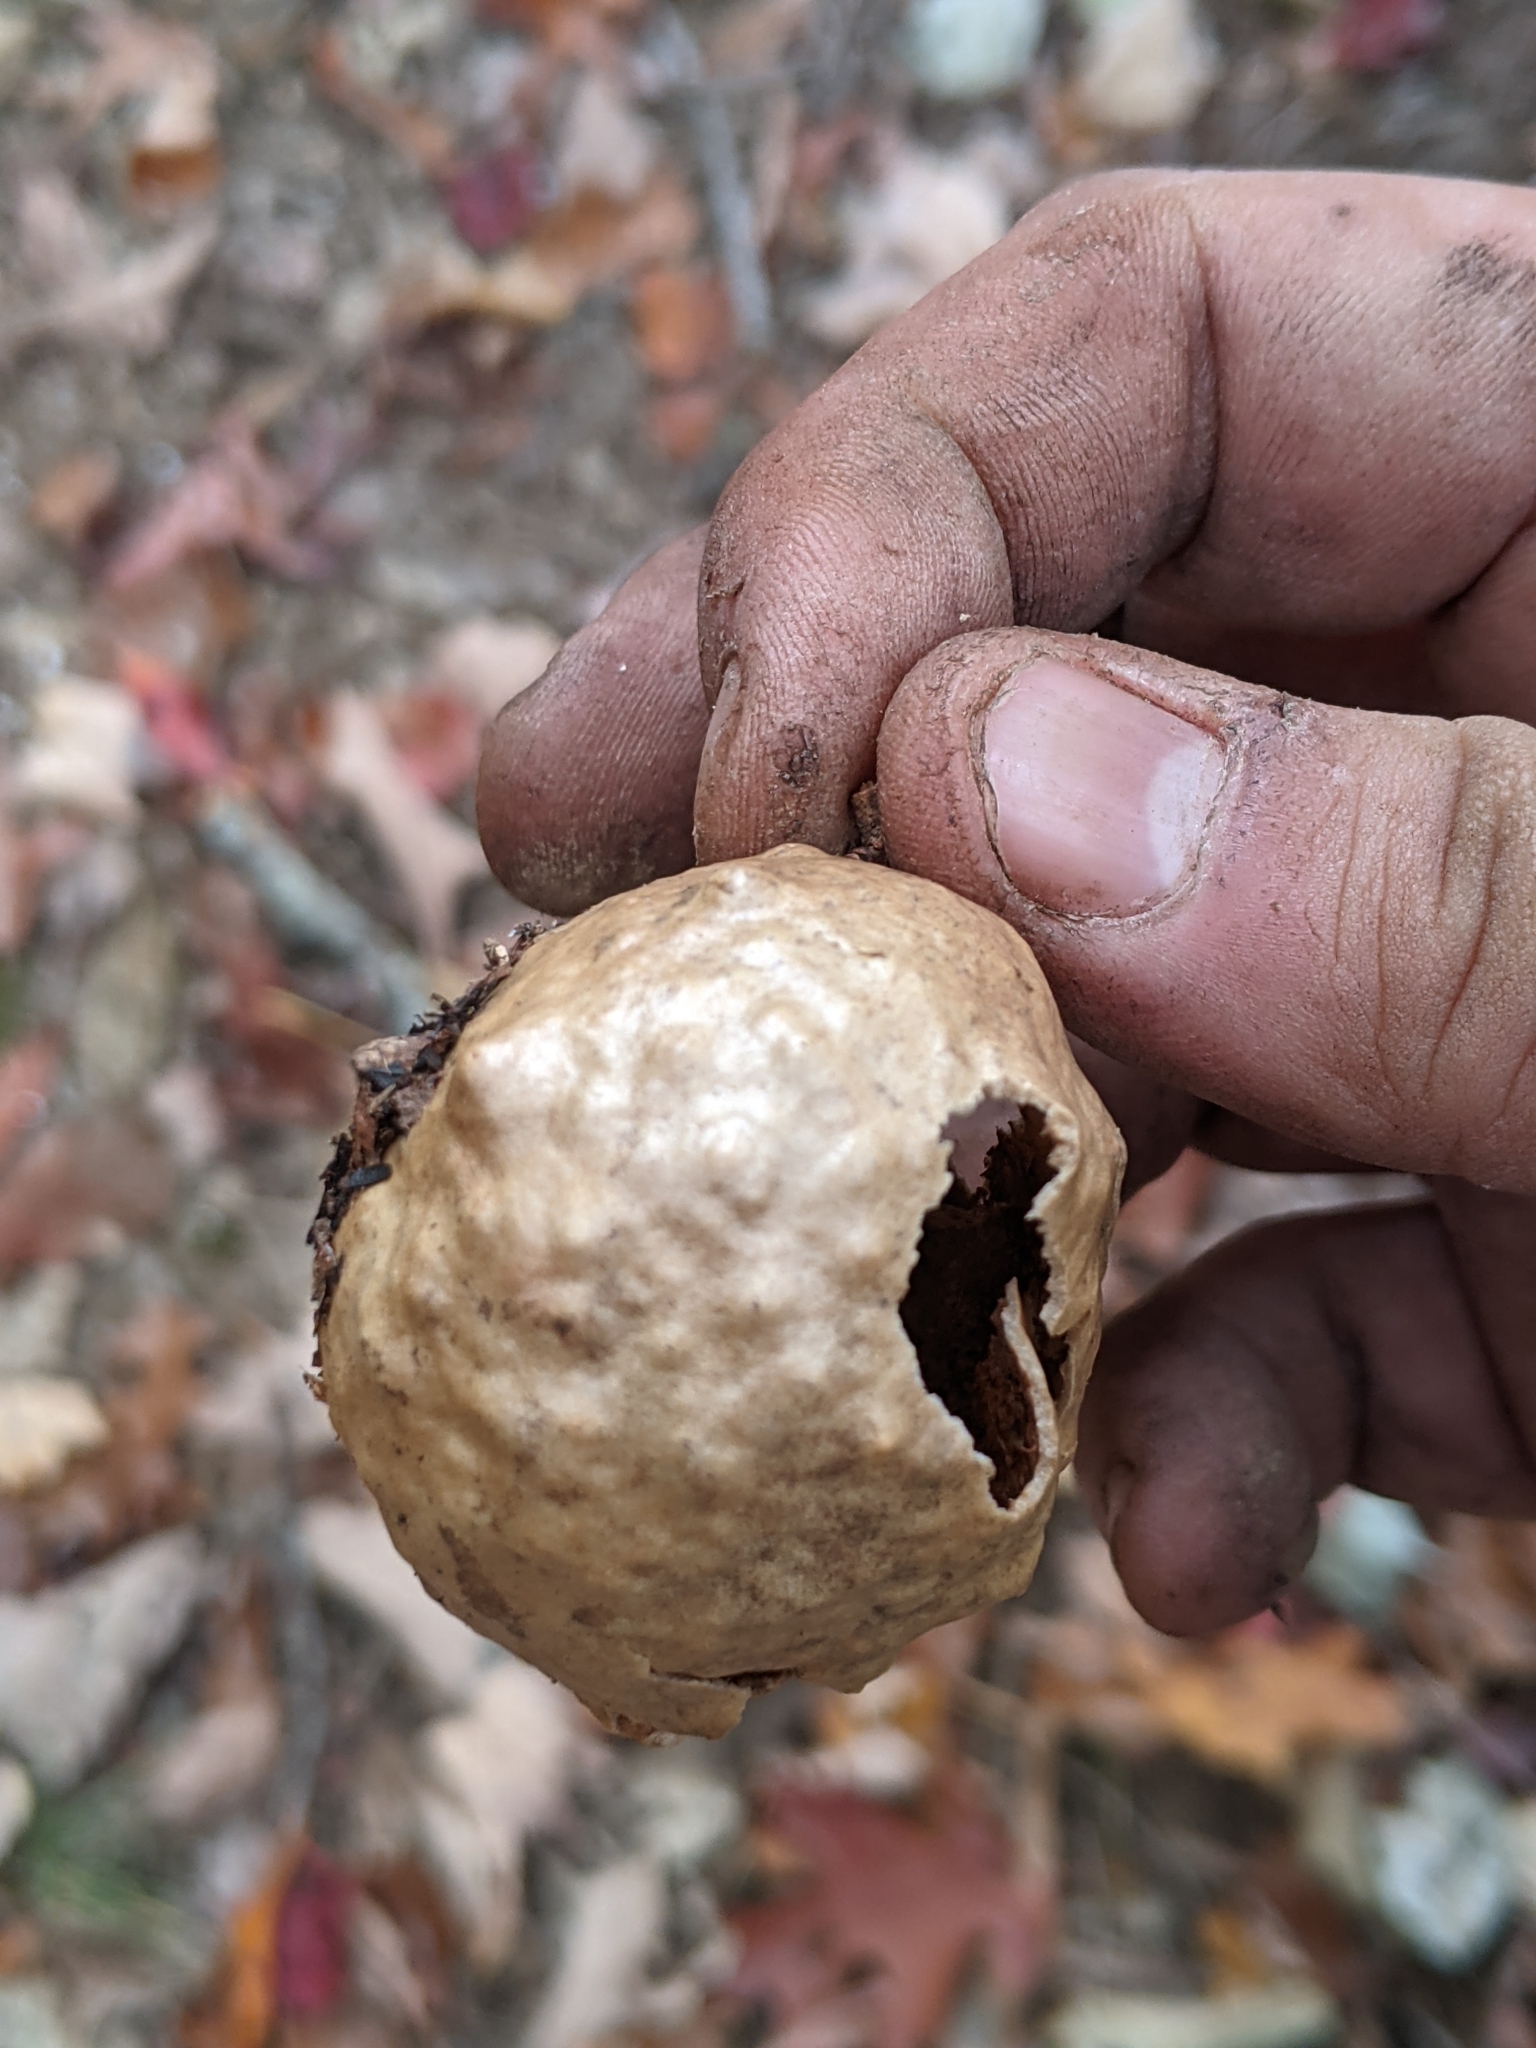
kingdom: Animalia
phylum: Arthropoda
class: Insecta
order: Hymenoptera
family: Cynipidae
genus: Amphibolips
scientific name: Amphibolips
